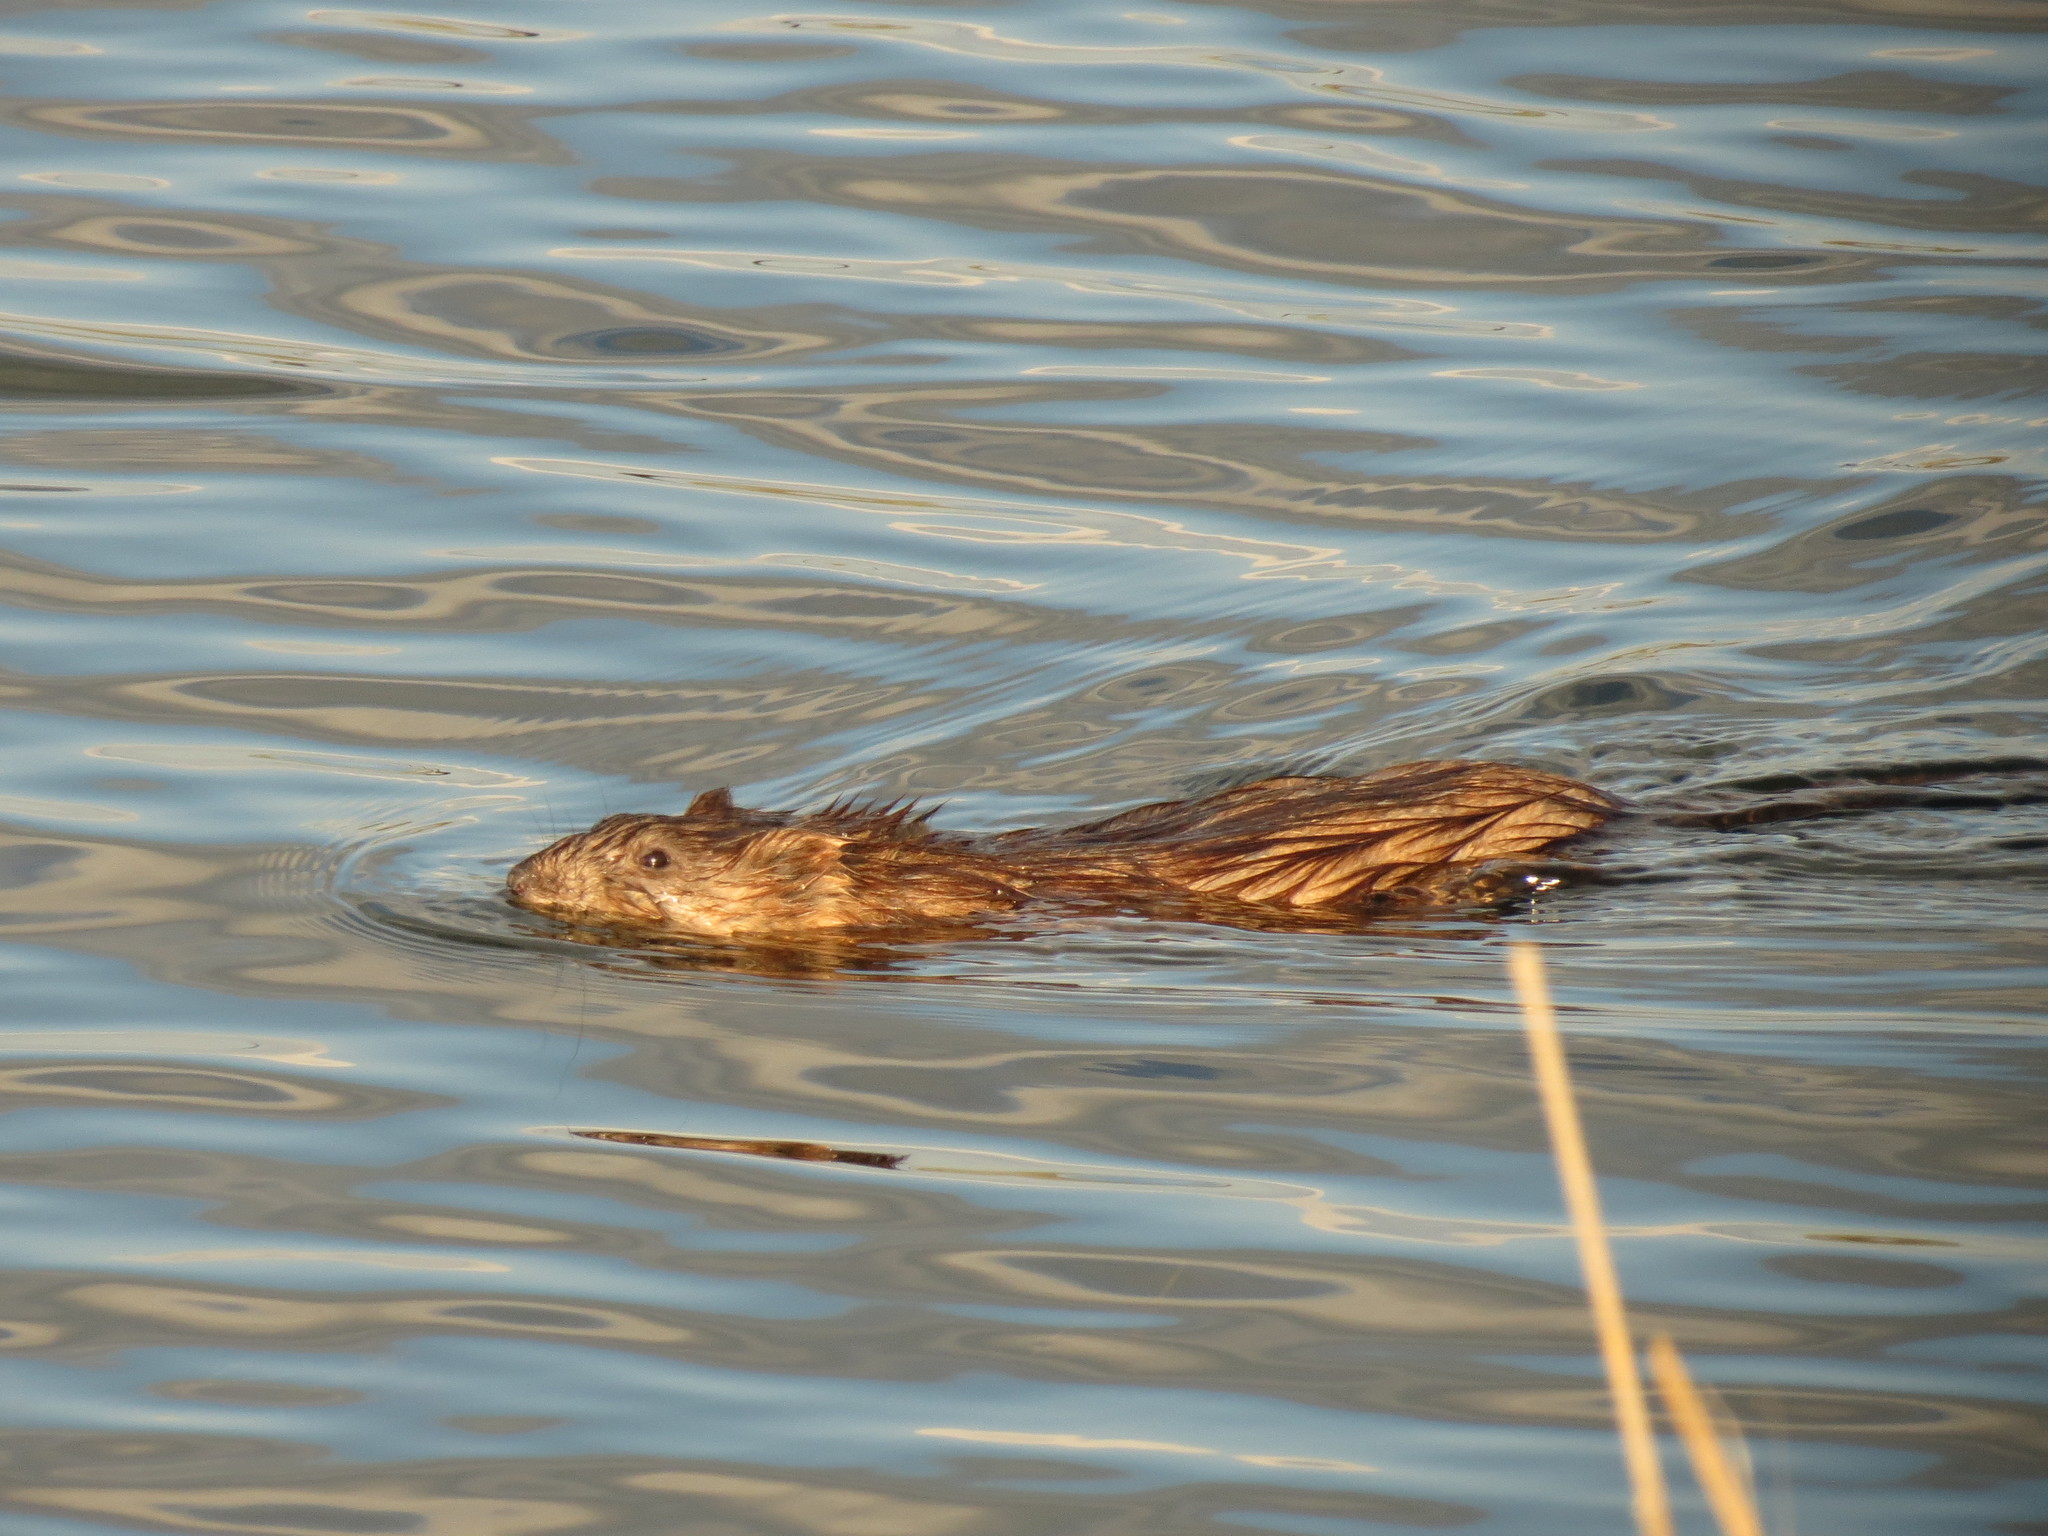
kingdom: Animalia
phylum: Chordata
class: Mammalia
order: Rodentia
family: Cricetidae
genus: Ondatra
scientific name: Ondatra zibethicus
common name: Muskrat
